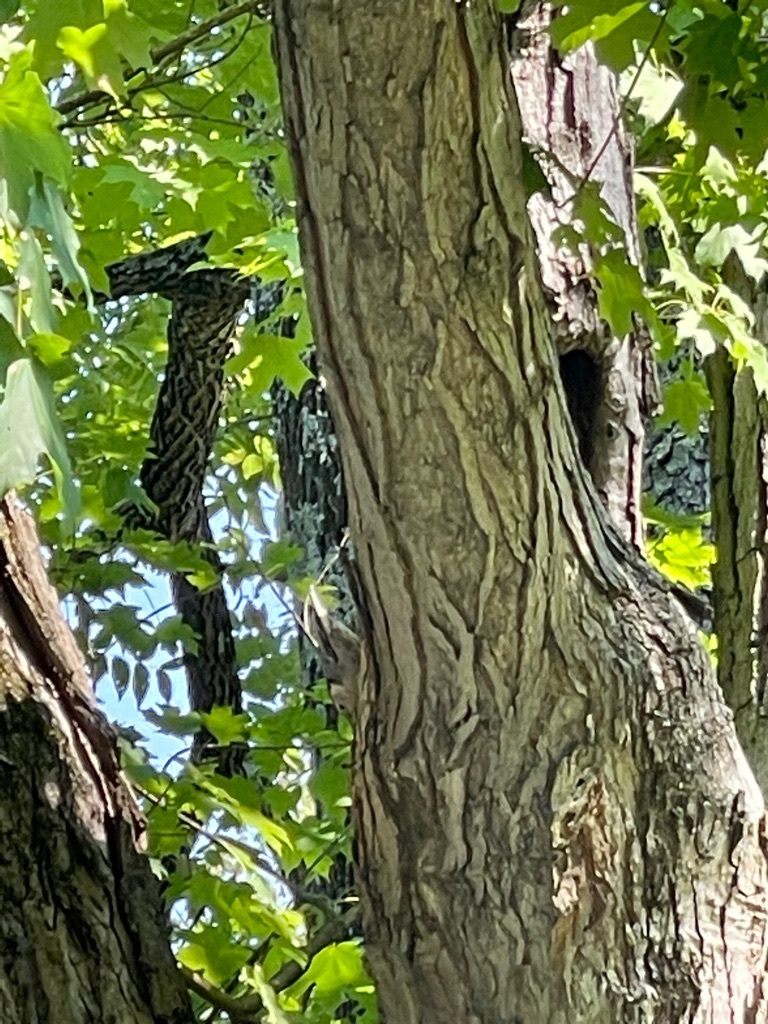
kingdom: Animalia
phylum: Chordata
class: Aves
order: Passeriformes
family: Sittidae
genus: Sitta
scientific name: Sitta carolinensis
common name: White-breasted nuthatch
